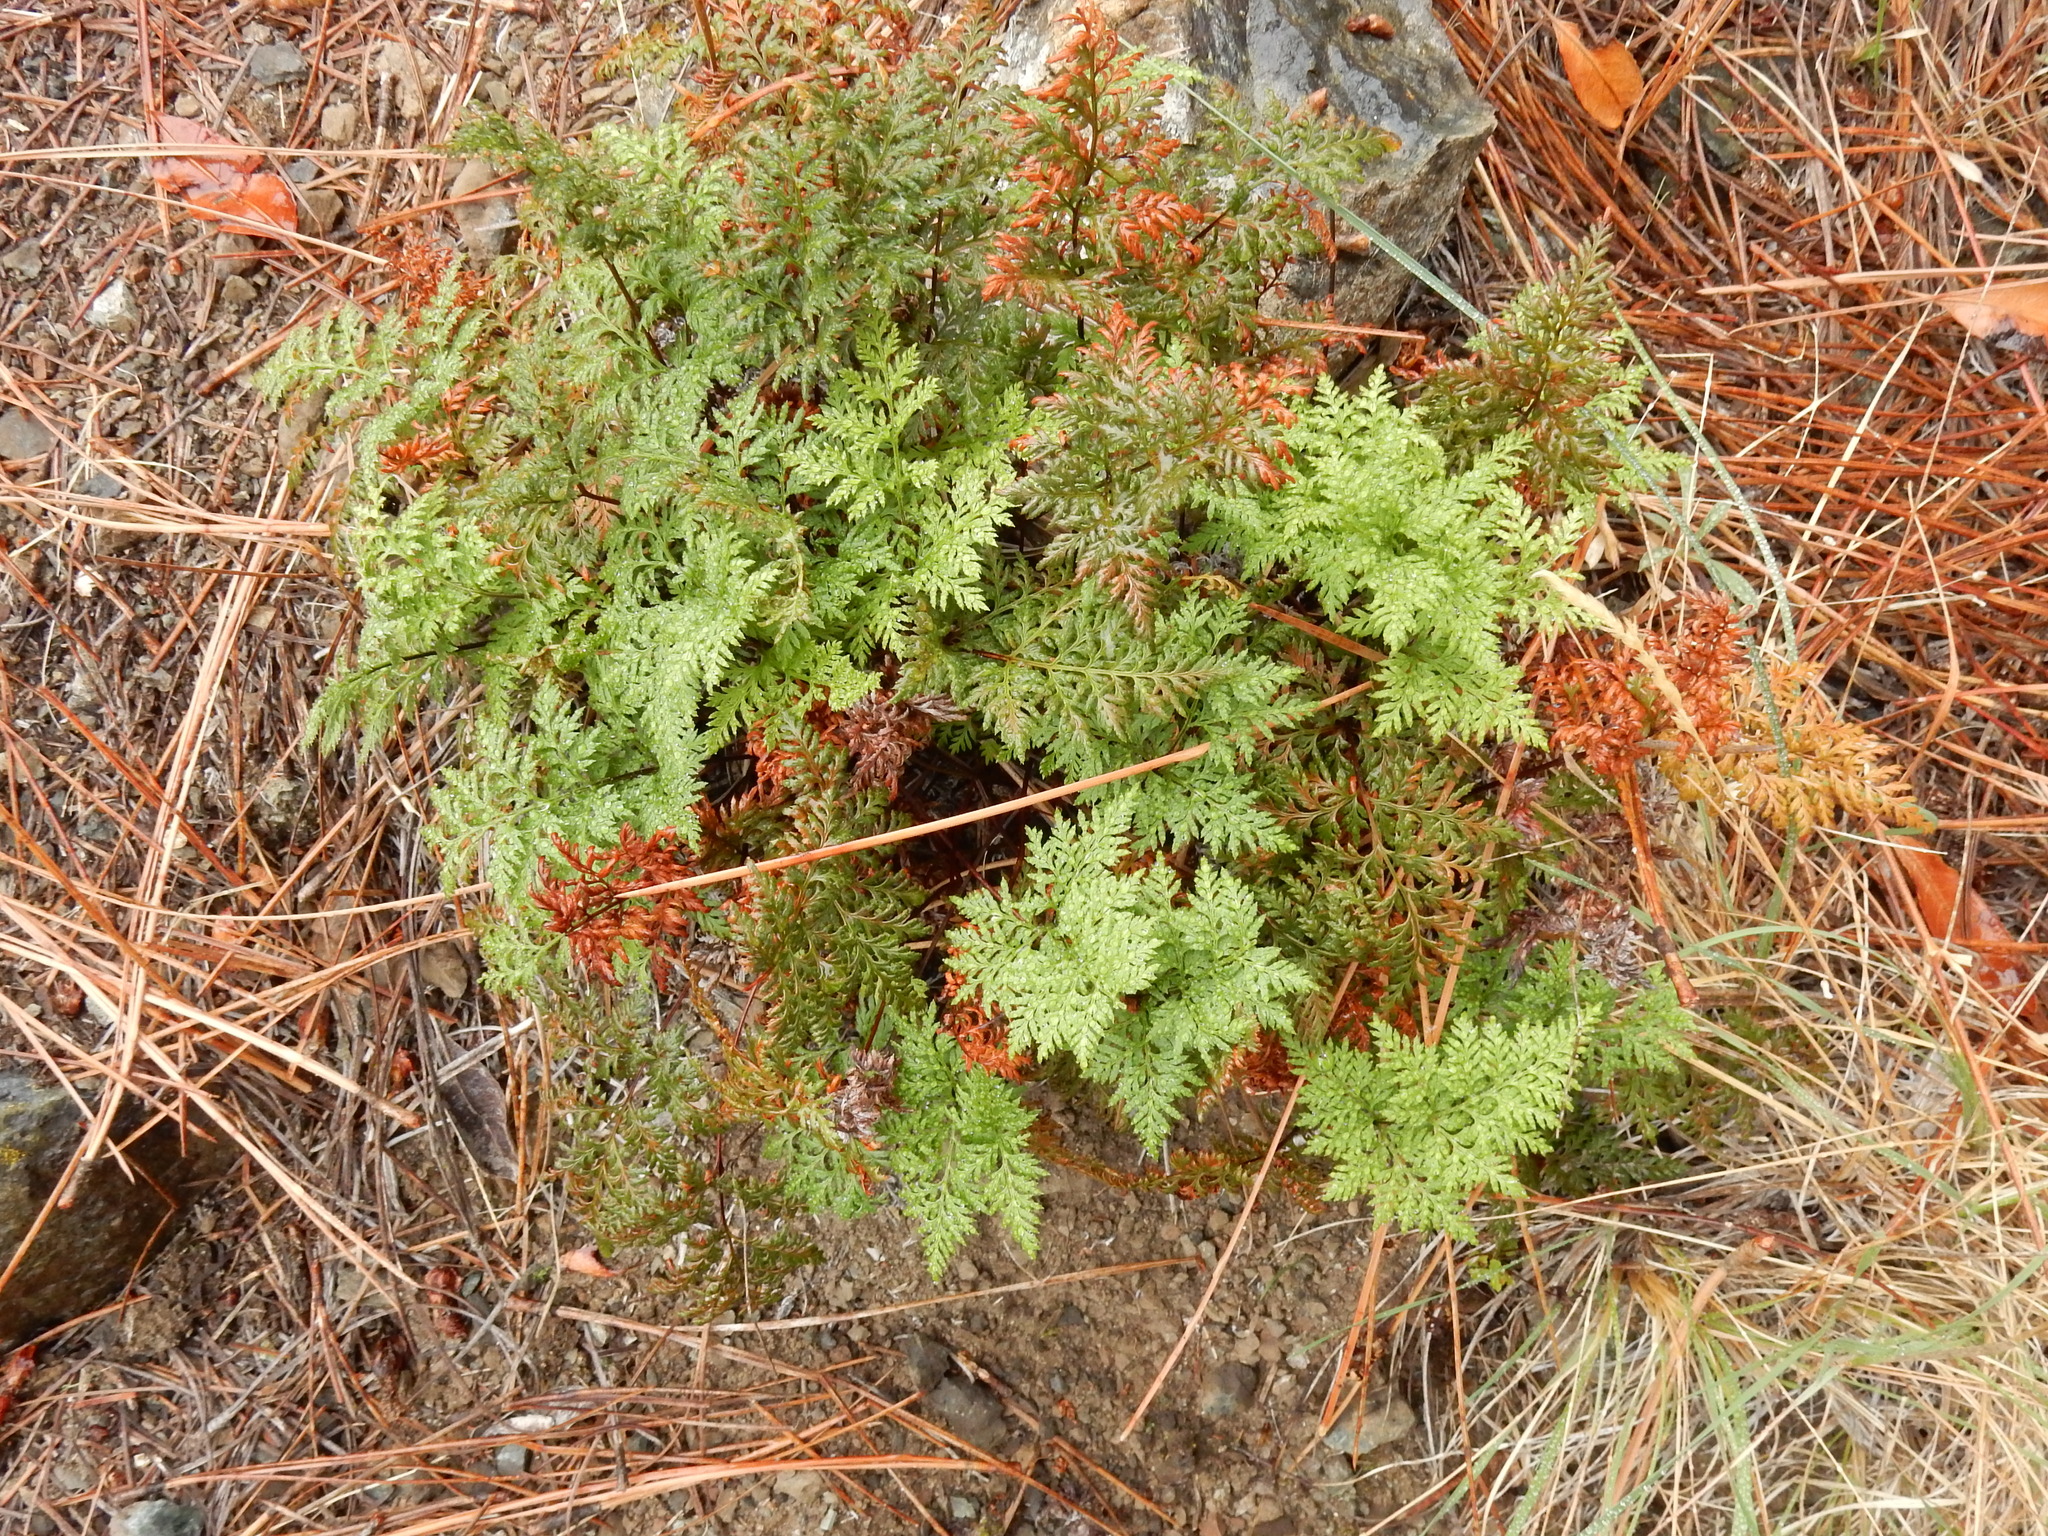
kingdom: Plantae
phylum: Tracheophyta
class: Polypodiopsida
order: Polypodiales
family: Pteridaceae
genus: Aspidotis
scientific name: Aspidotis californica
